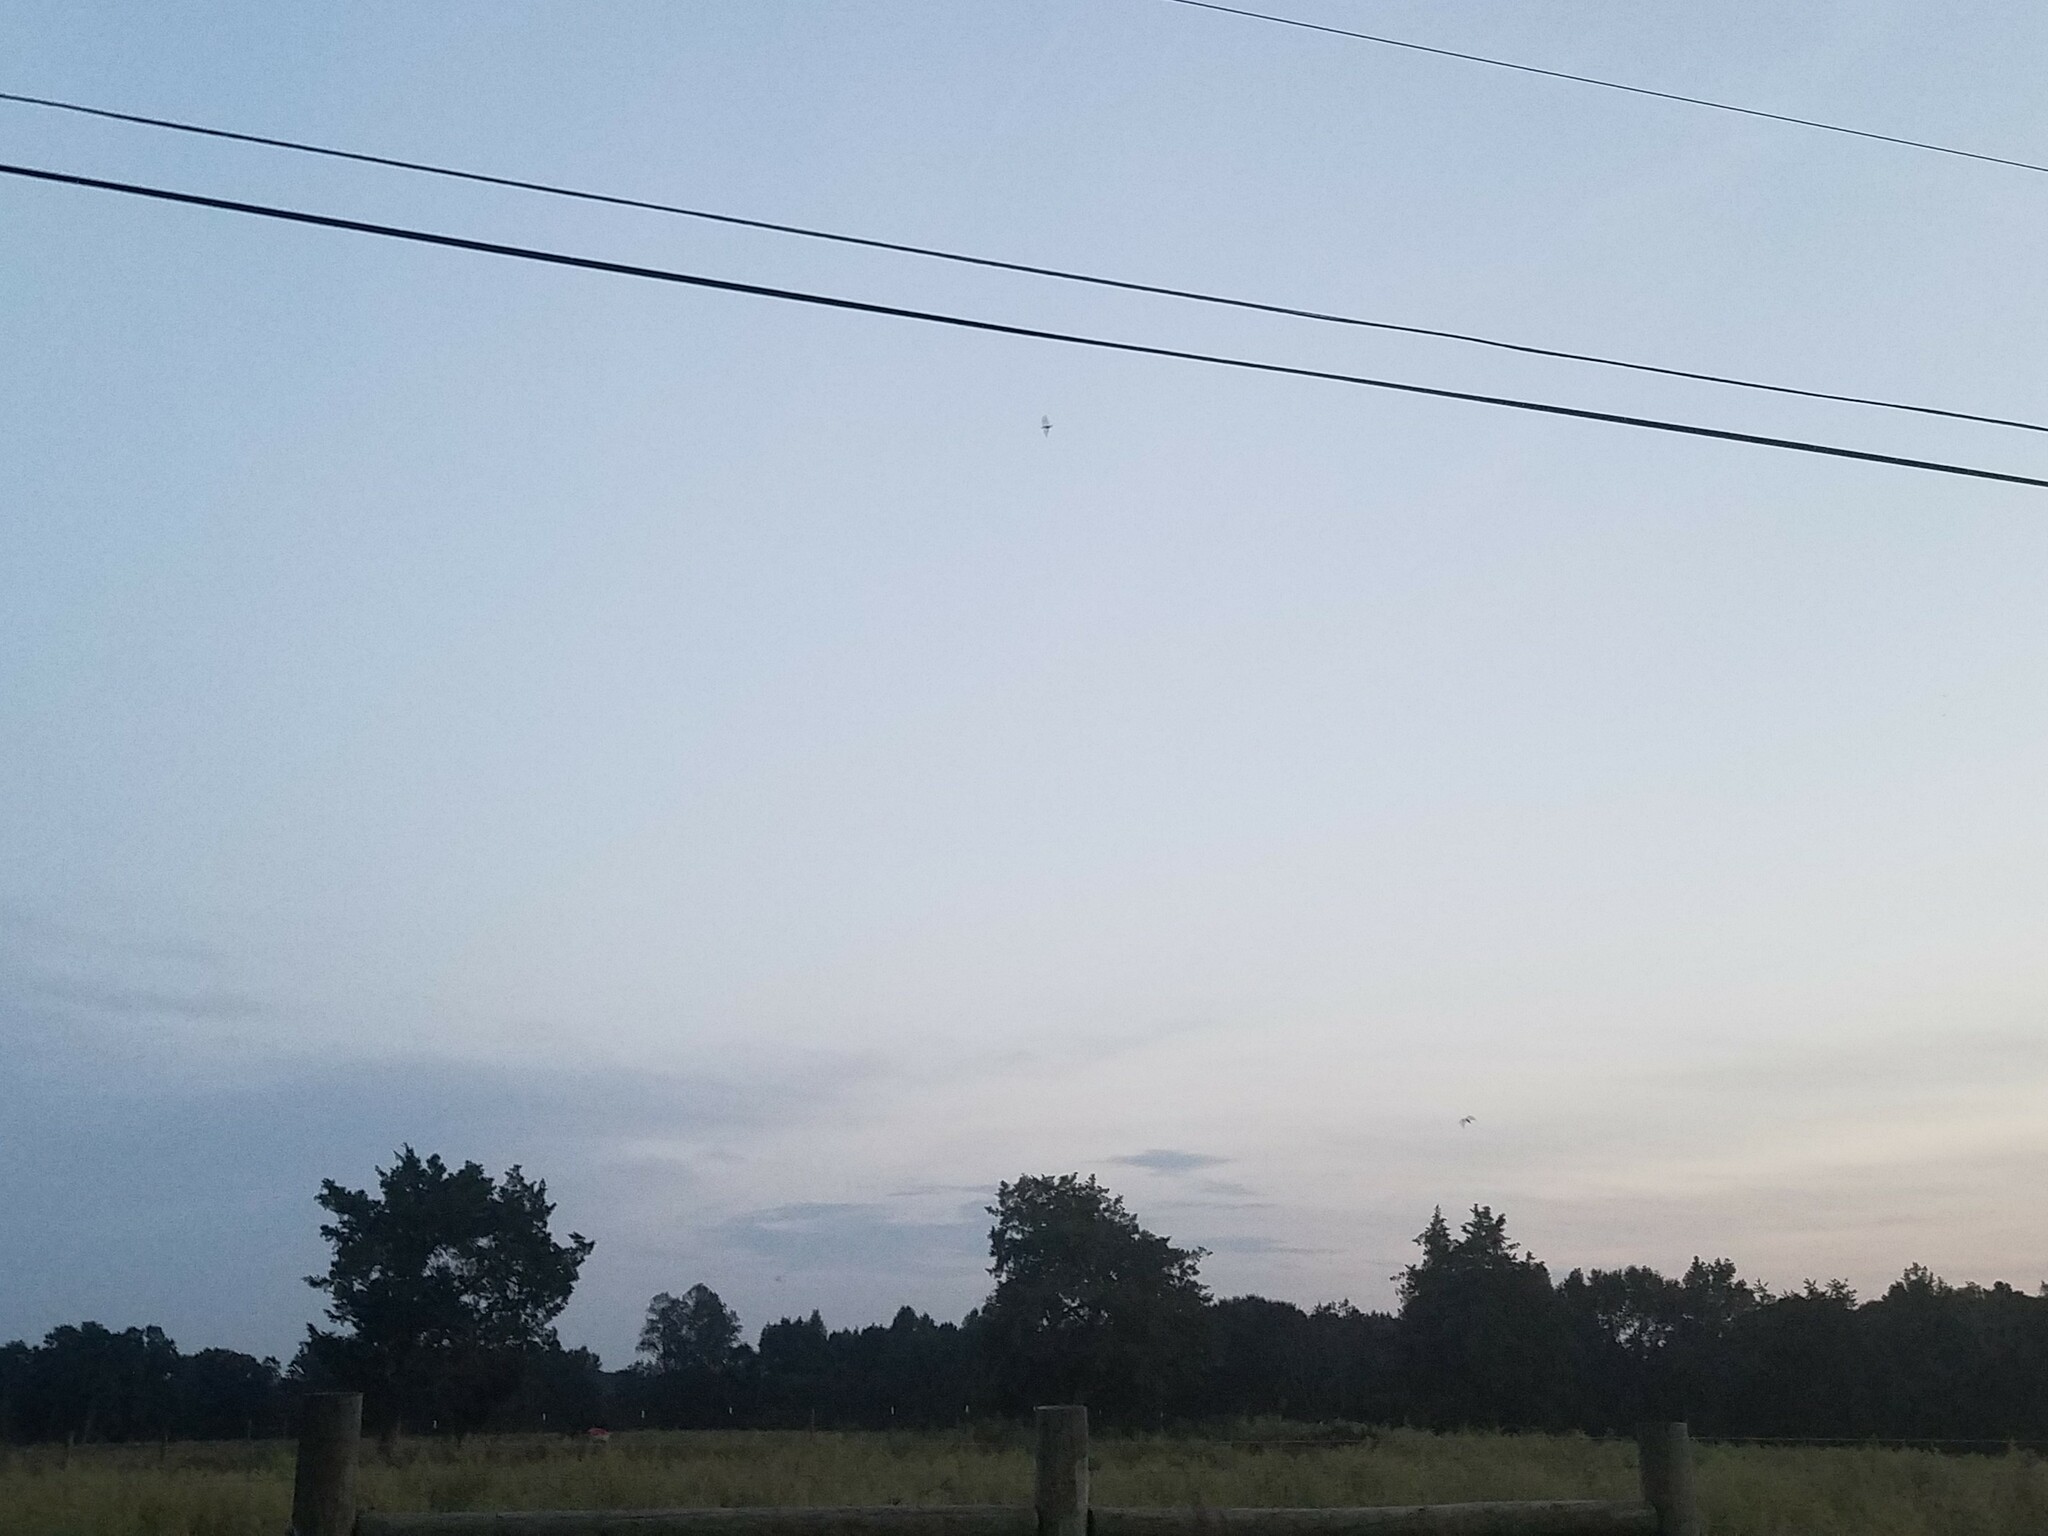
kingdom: Animalia
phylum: Chordata
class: Aves
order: Caprimulgiformes
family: Caprimulgidae
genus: Chordeiles
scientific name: Chordeiles minor
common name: Common nighthawk
